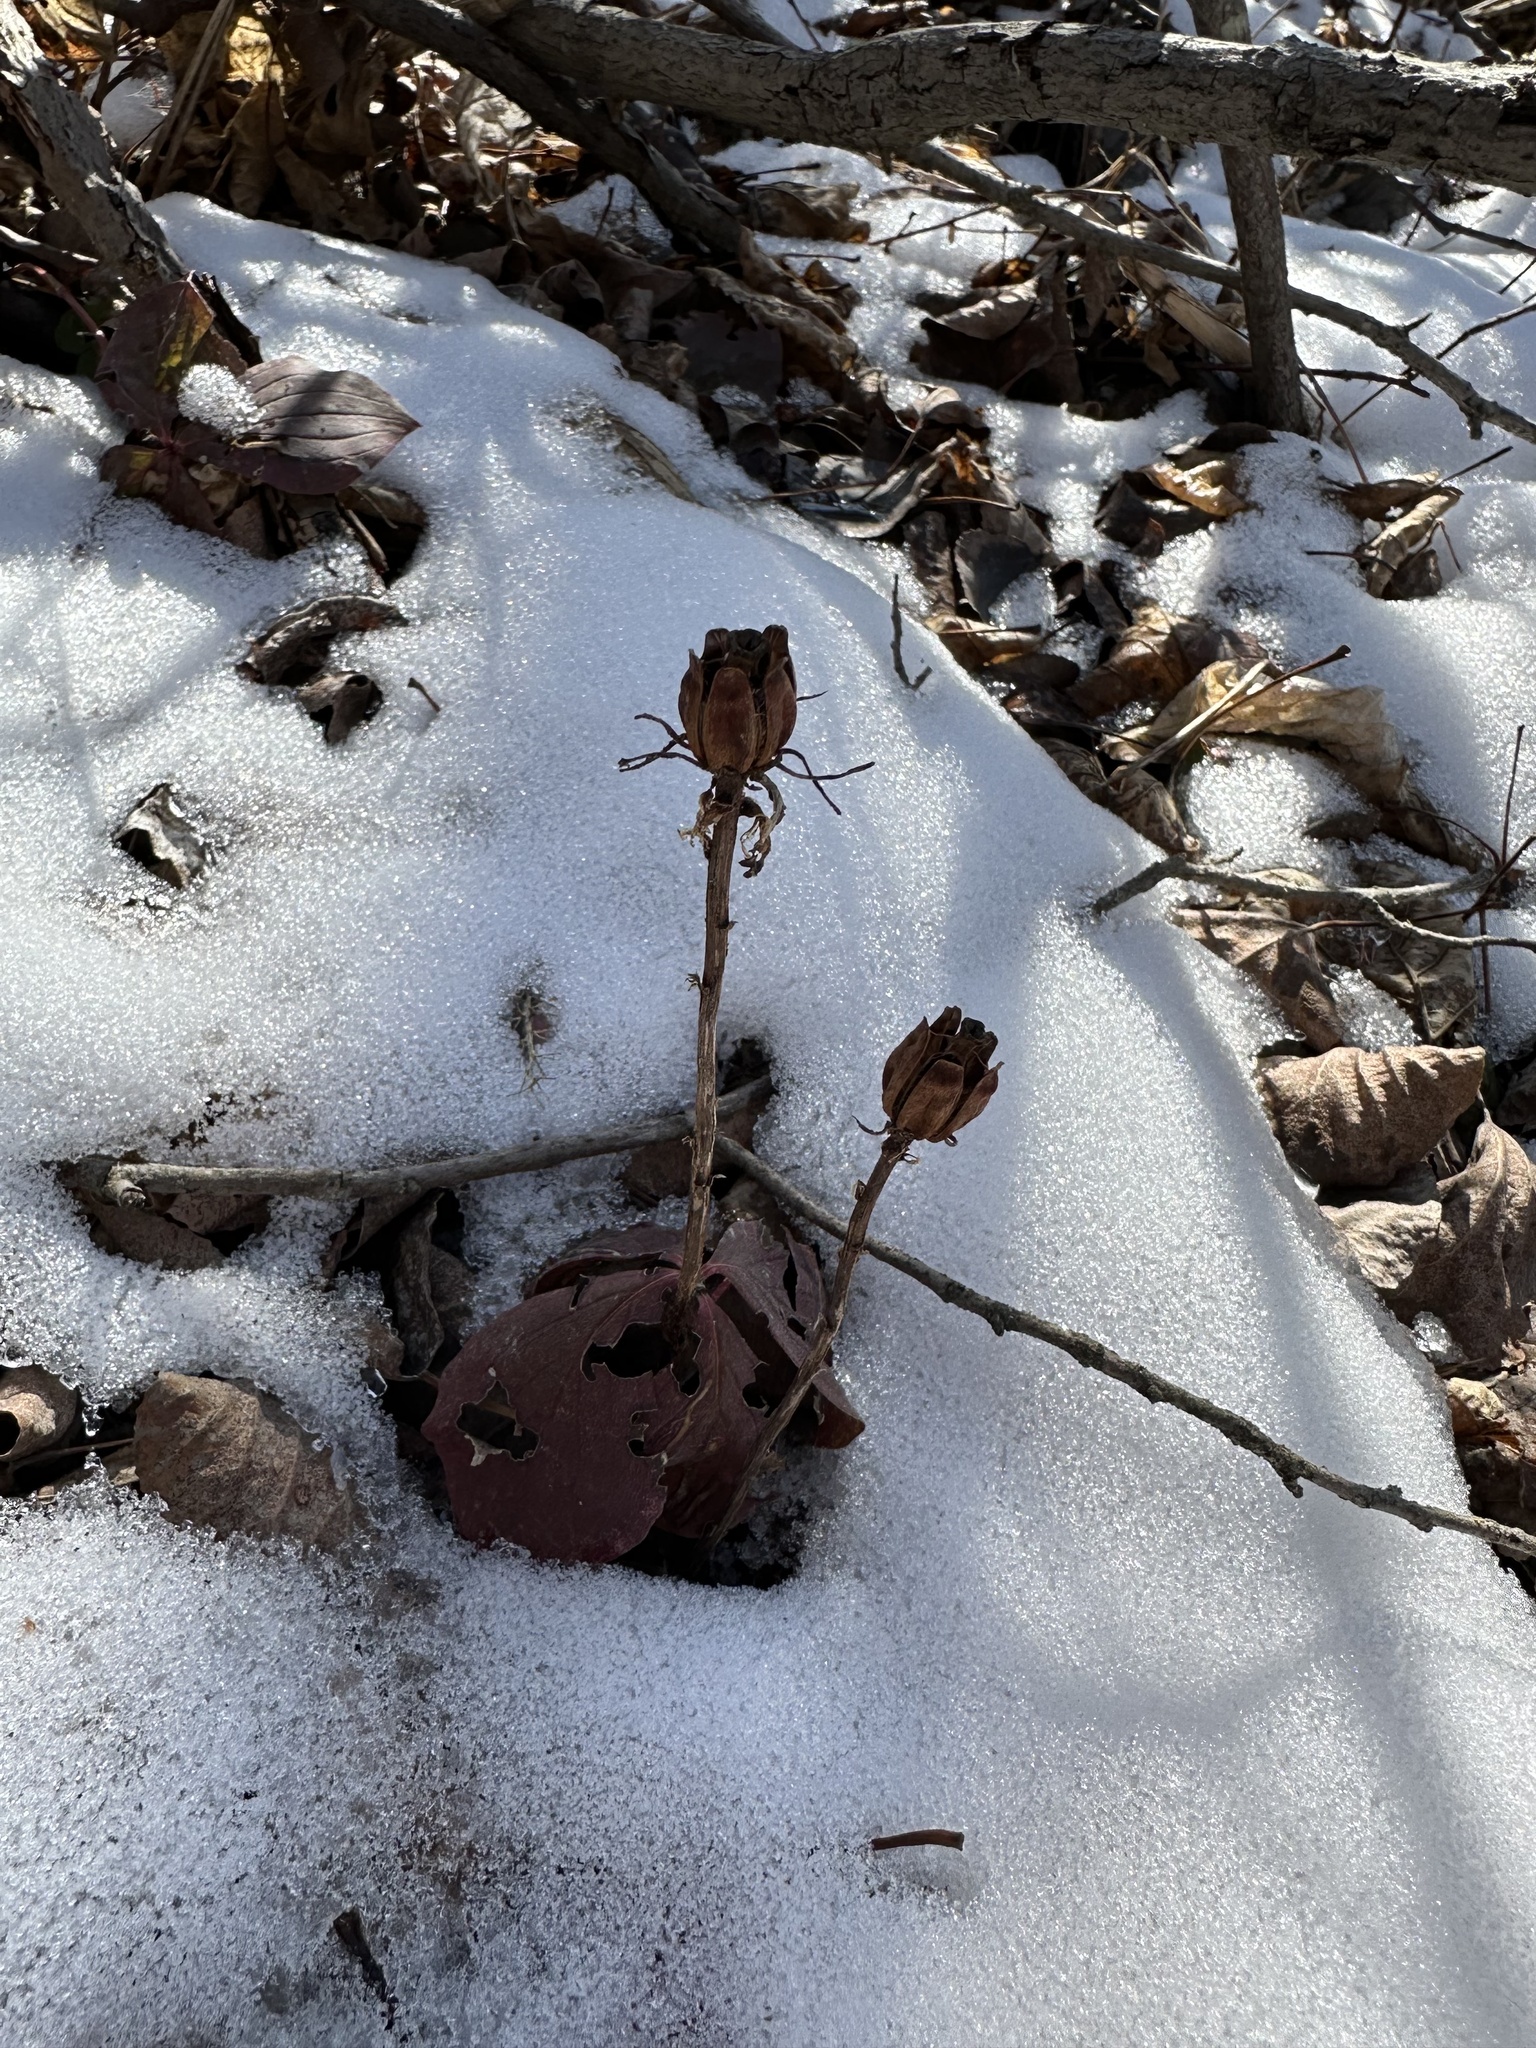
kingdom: Plantae
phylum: Tracheophyta
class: Magnoliopsida
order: Ericales
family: Ericaceae
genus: Monotropa
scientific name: Monotropa uniflora
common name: Convulsion root
